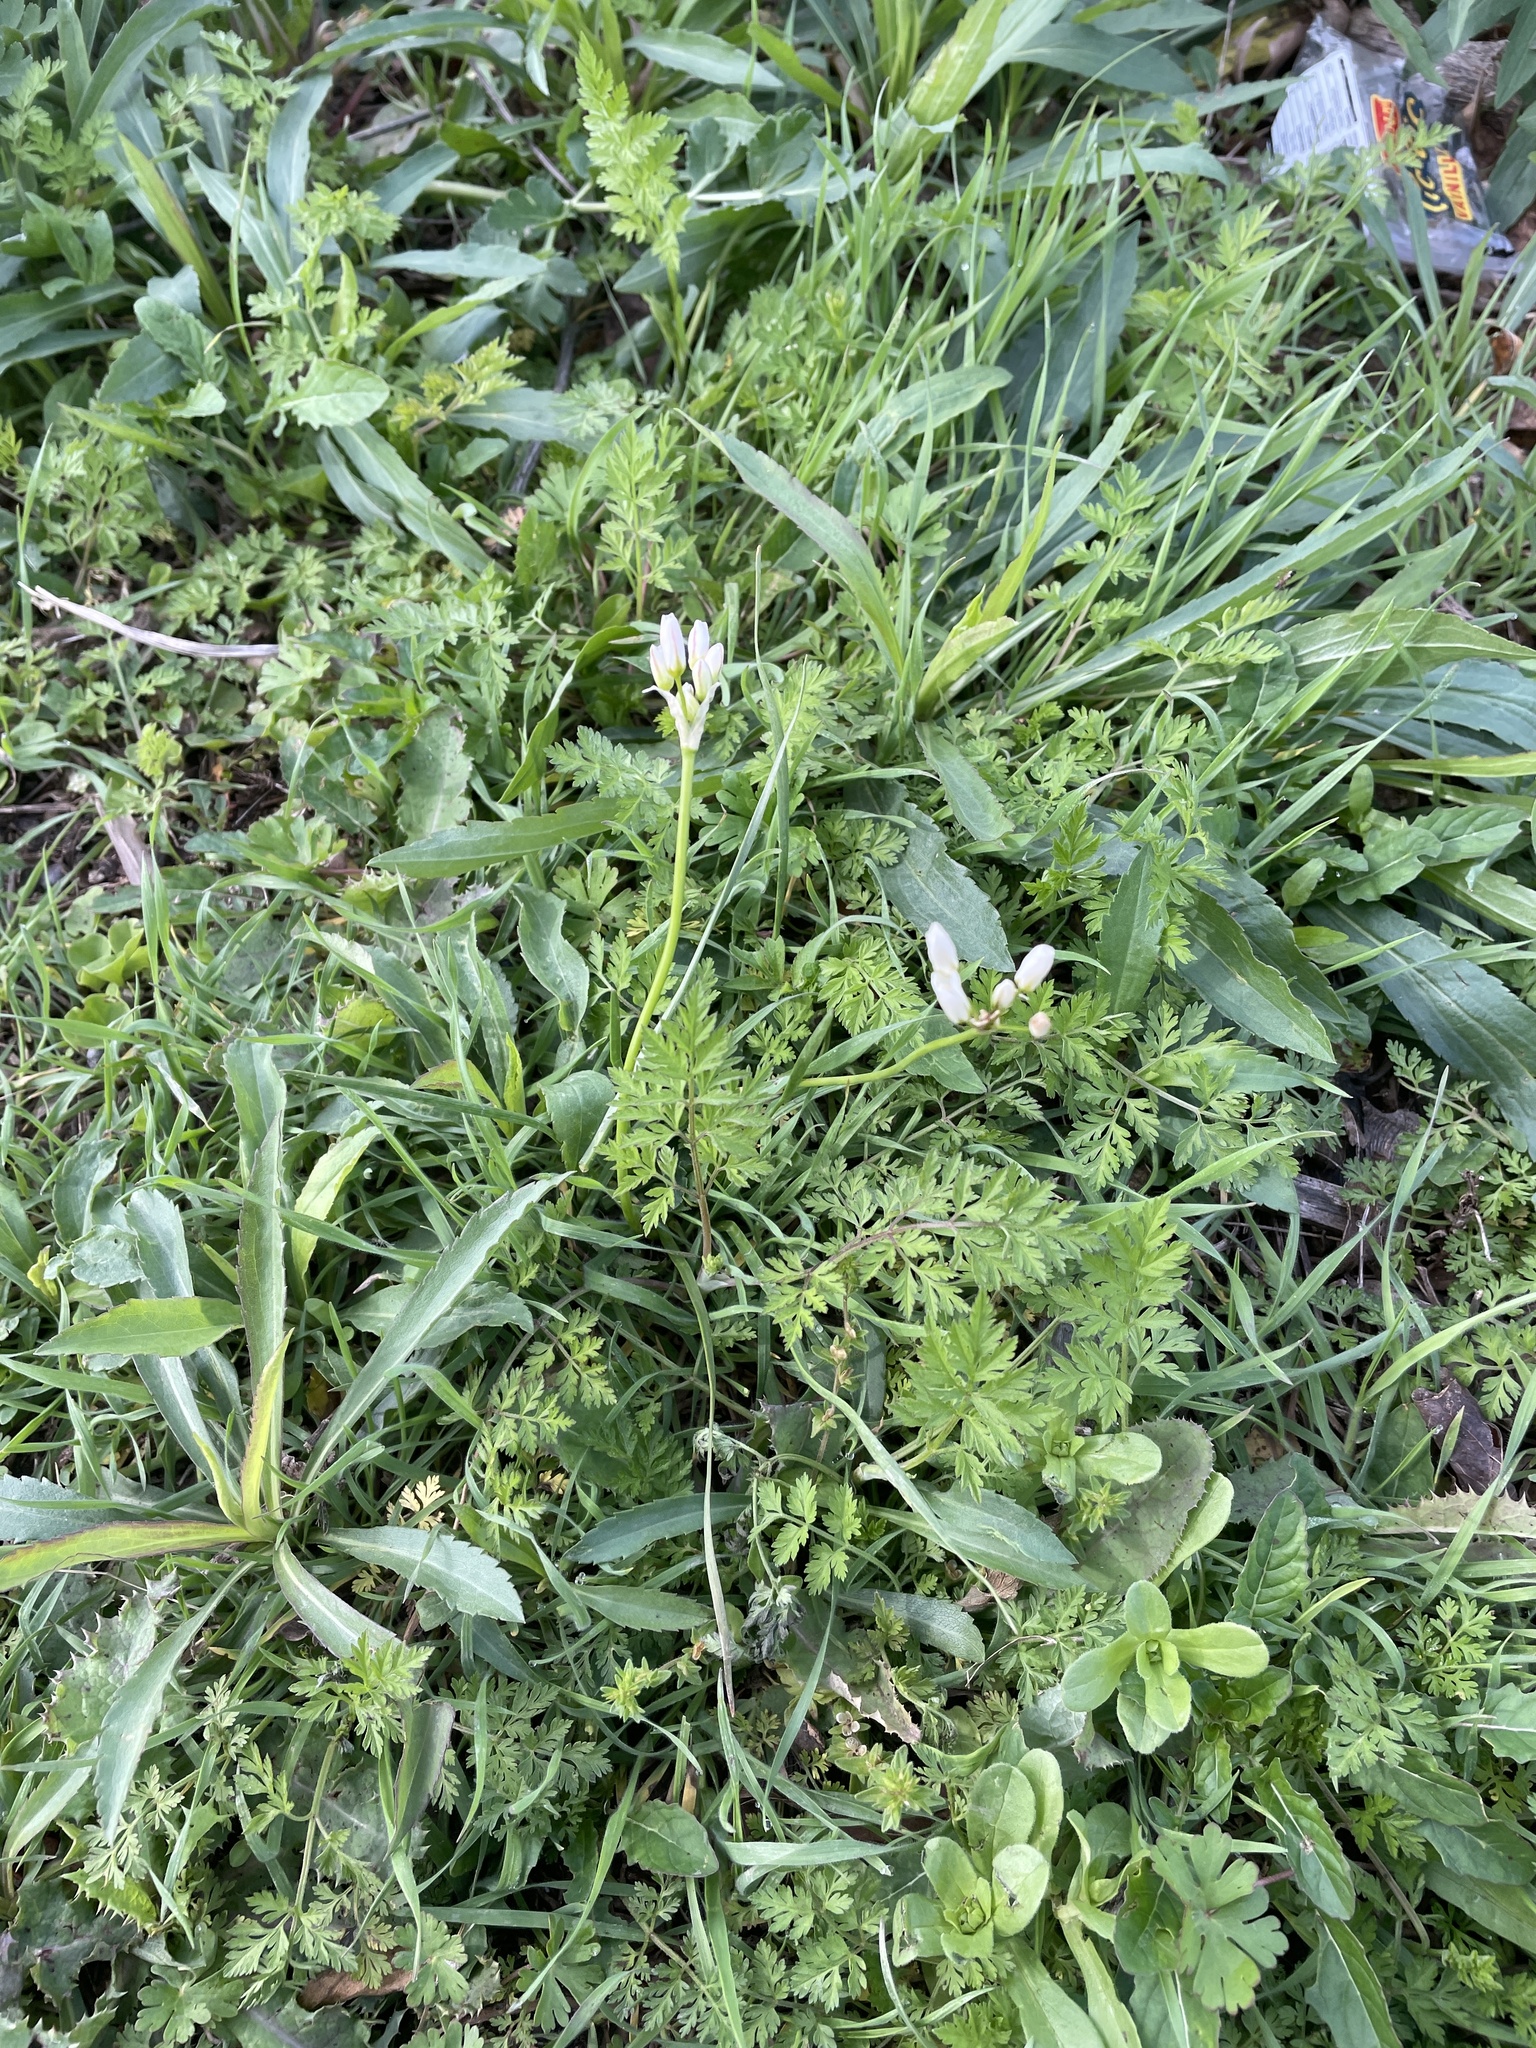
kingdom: Plantae
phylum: Tracheophyta
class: Liliopsida
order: Asparagales
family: Amaryllidaceae
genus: Nothoscordum
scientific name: Nothoscordum bivalve
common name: Crow-poison
